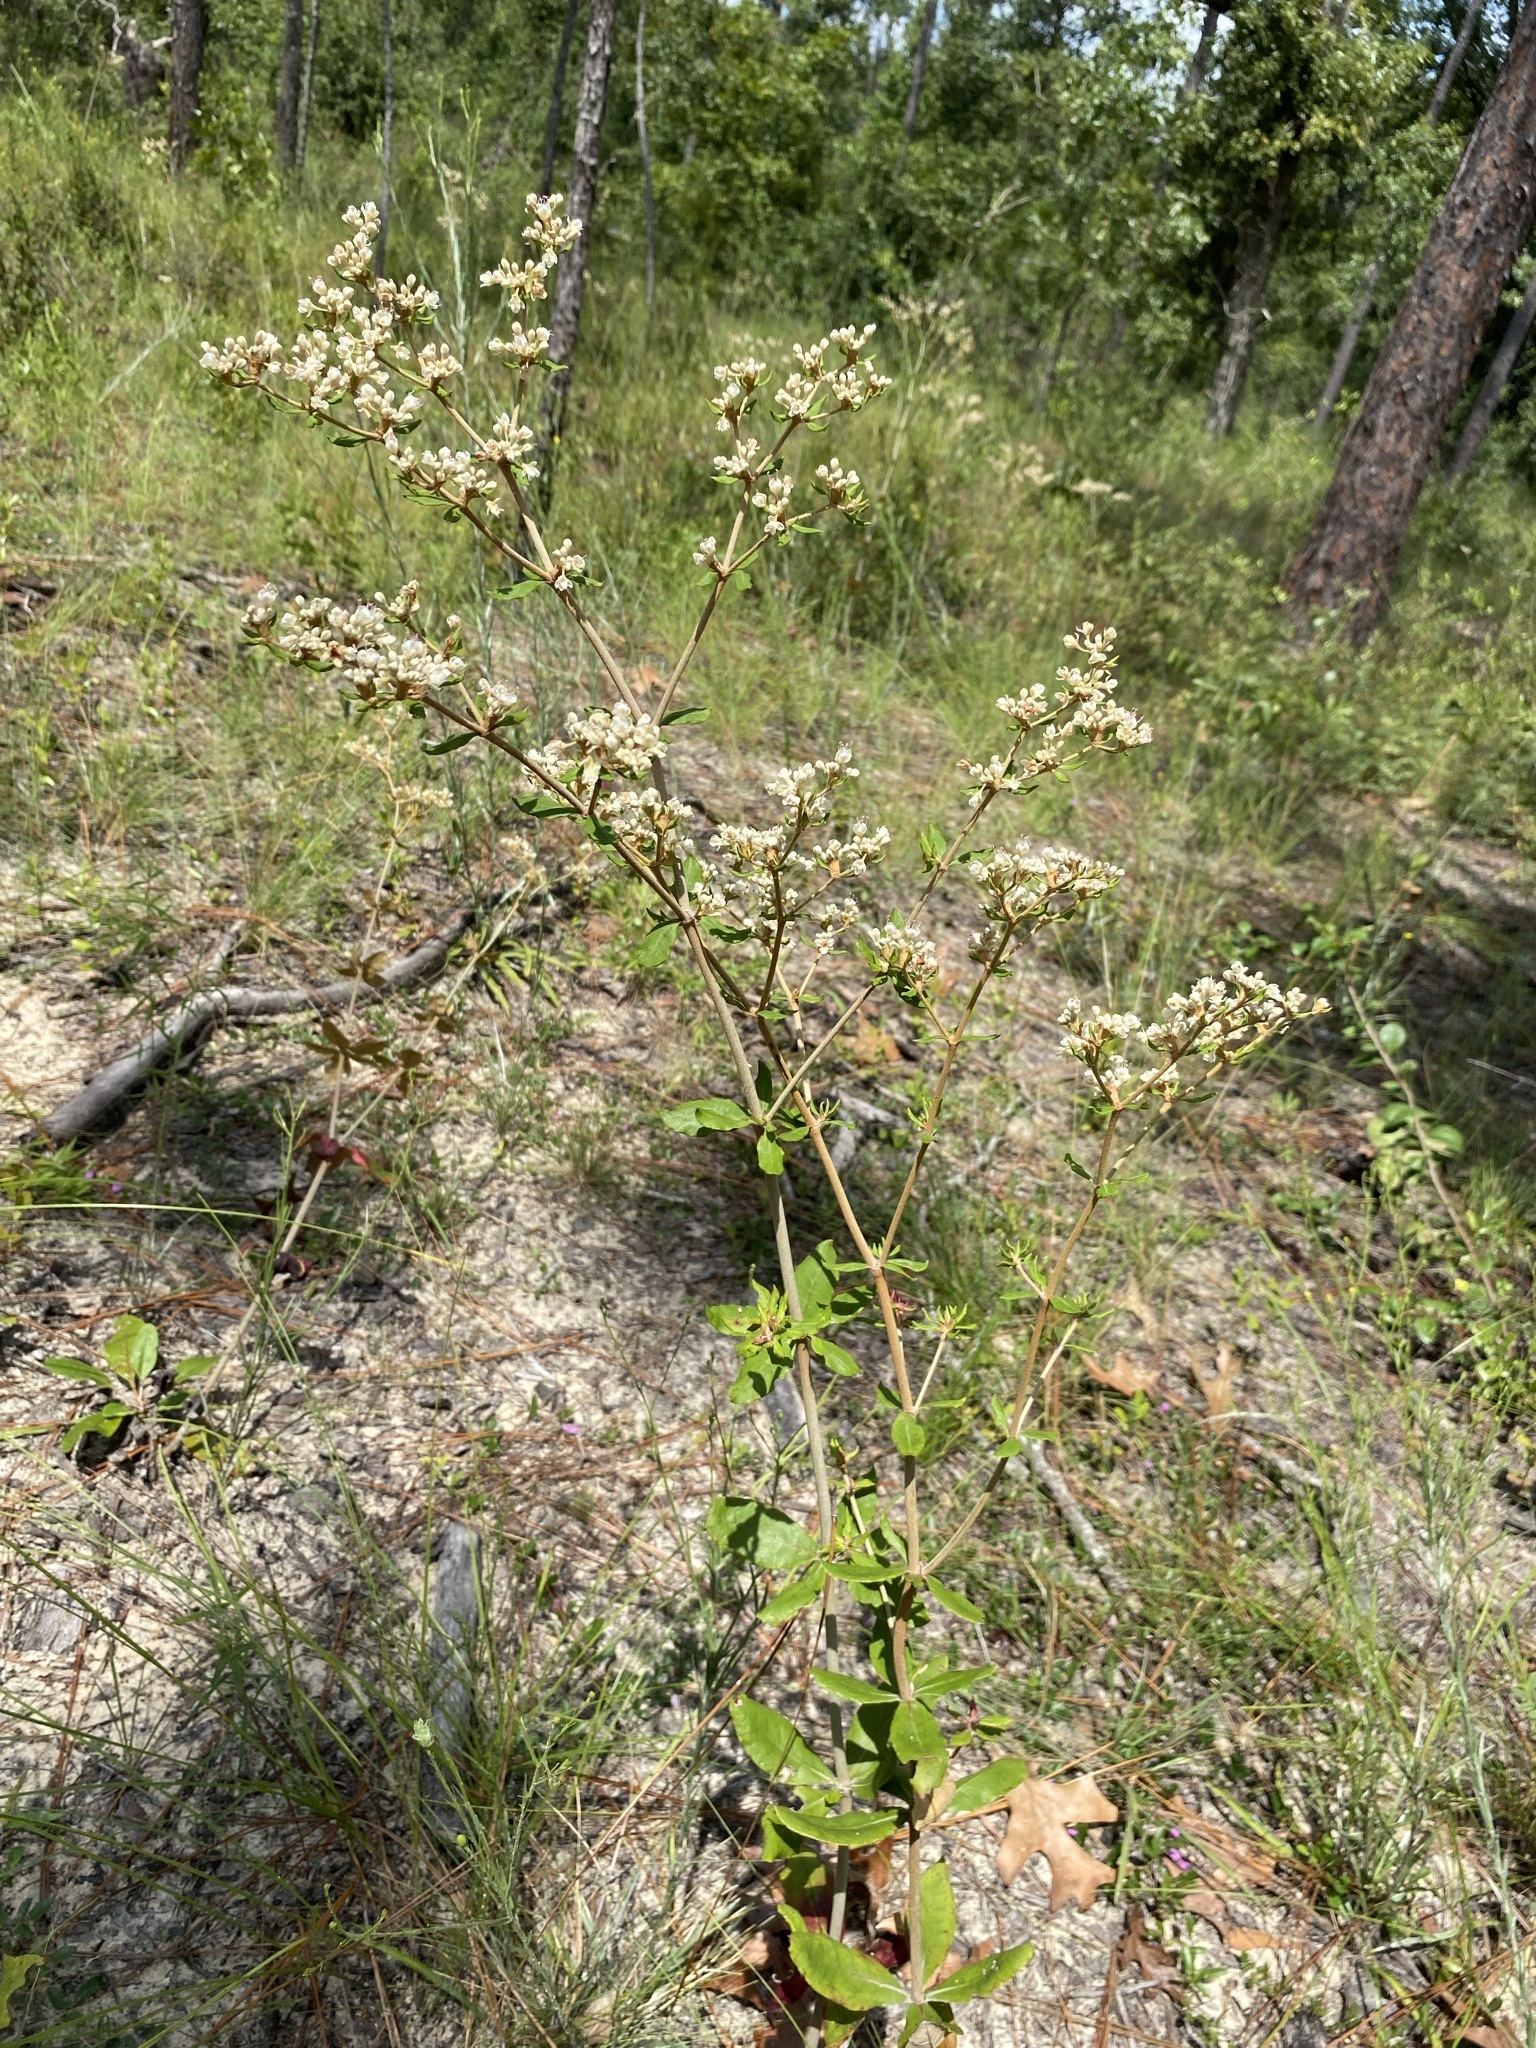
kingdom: Plantae
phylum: Tracheophyta
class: Magnoliopsida
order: Caryophyllales
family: Polygonaceae
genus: Eriogonum
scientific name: Eriogonum tomentosum
